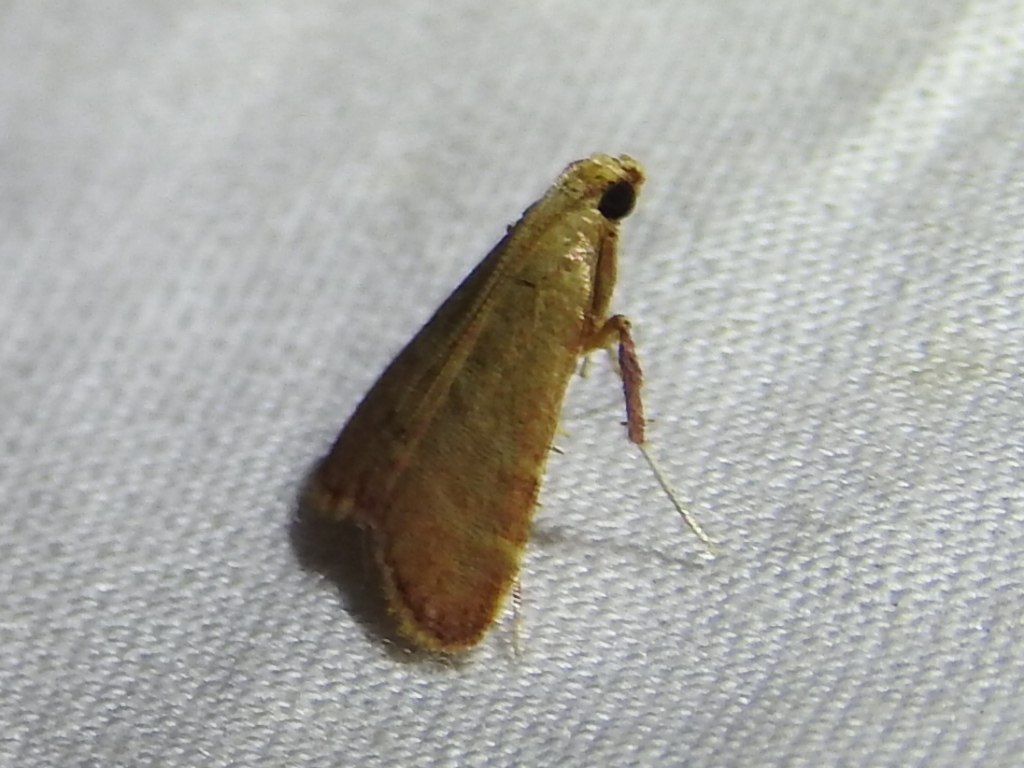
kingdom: Animalia
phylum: Arthropoda
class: Insecta
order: Lepidoptera
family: Pyralidae
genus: Arta
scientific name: Arta olivalis
